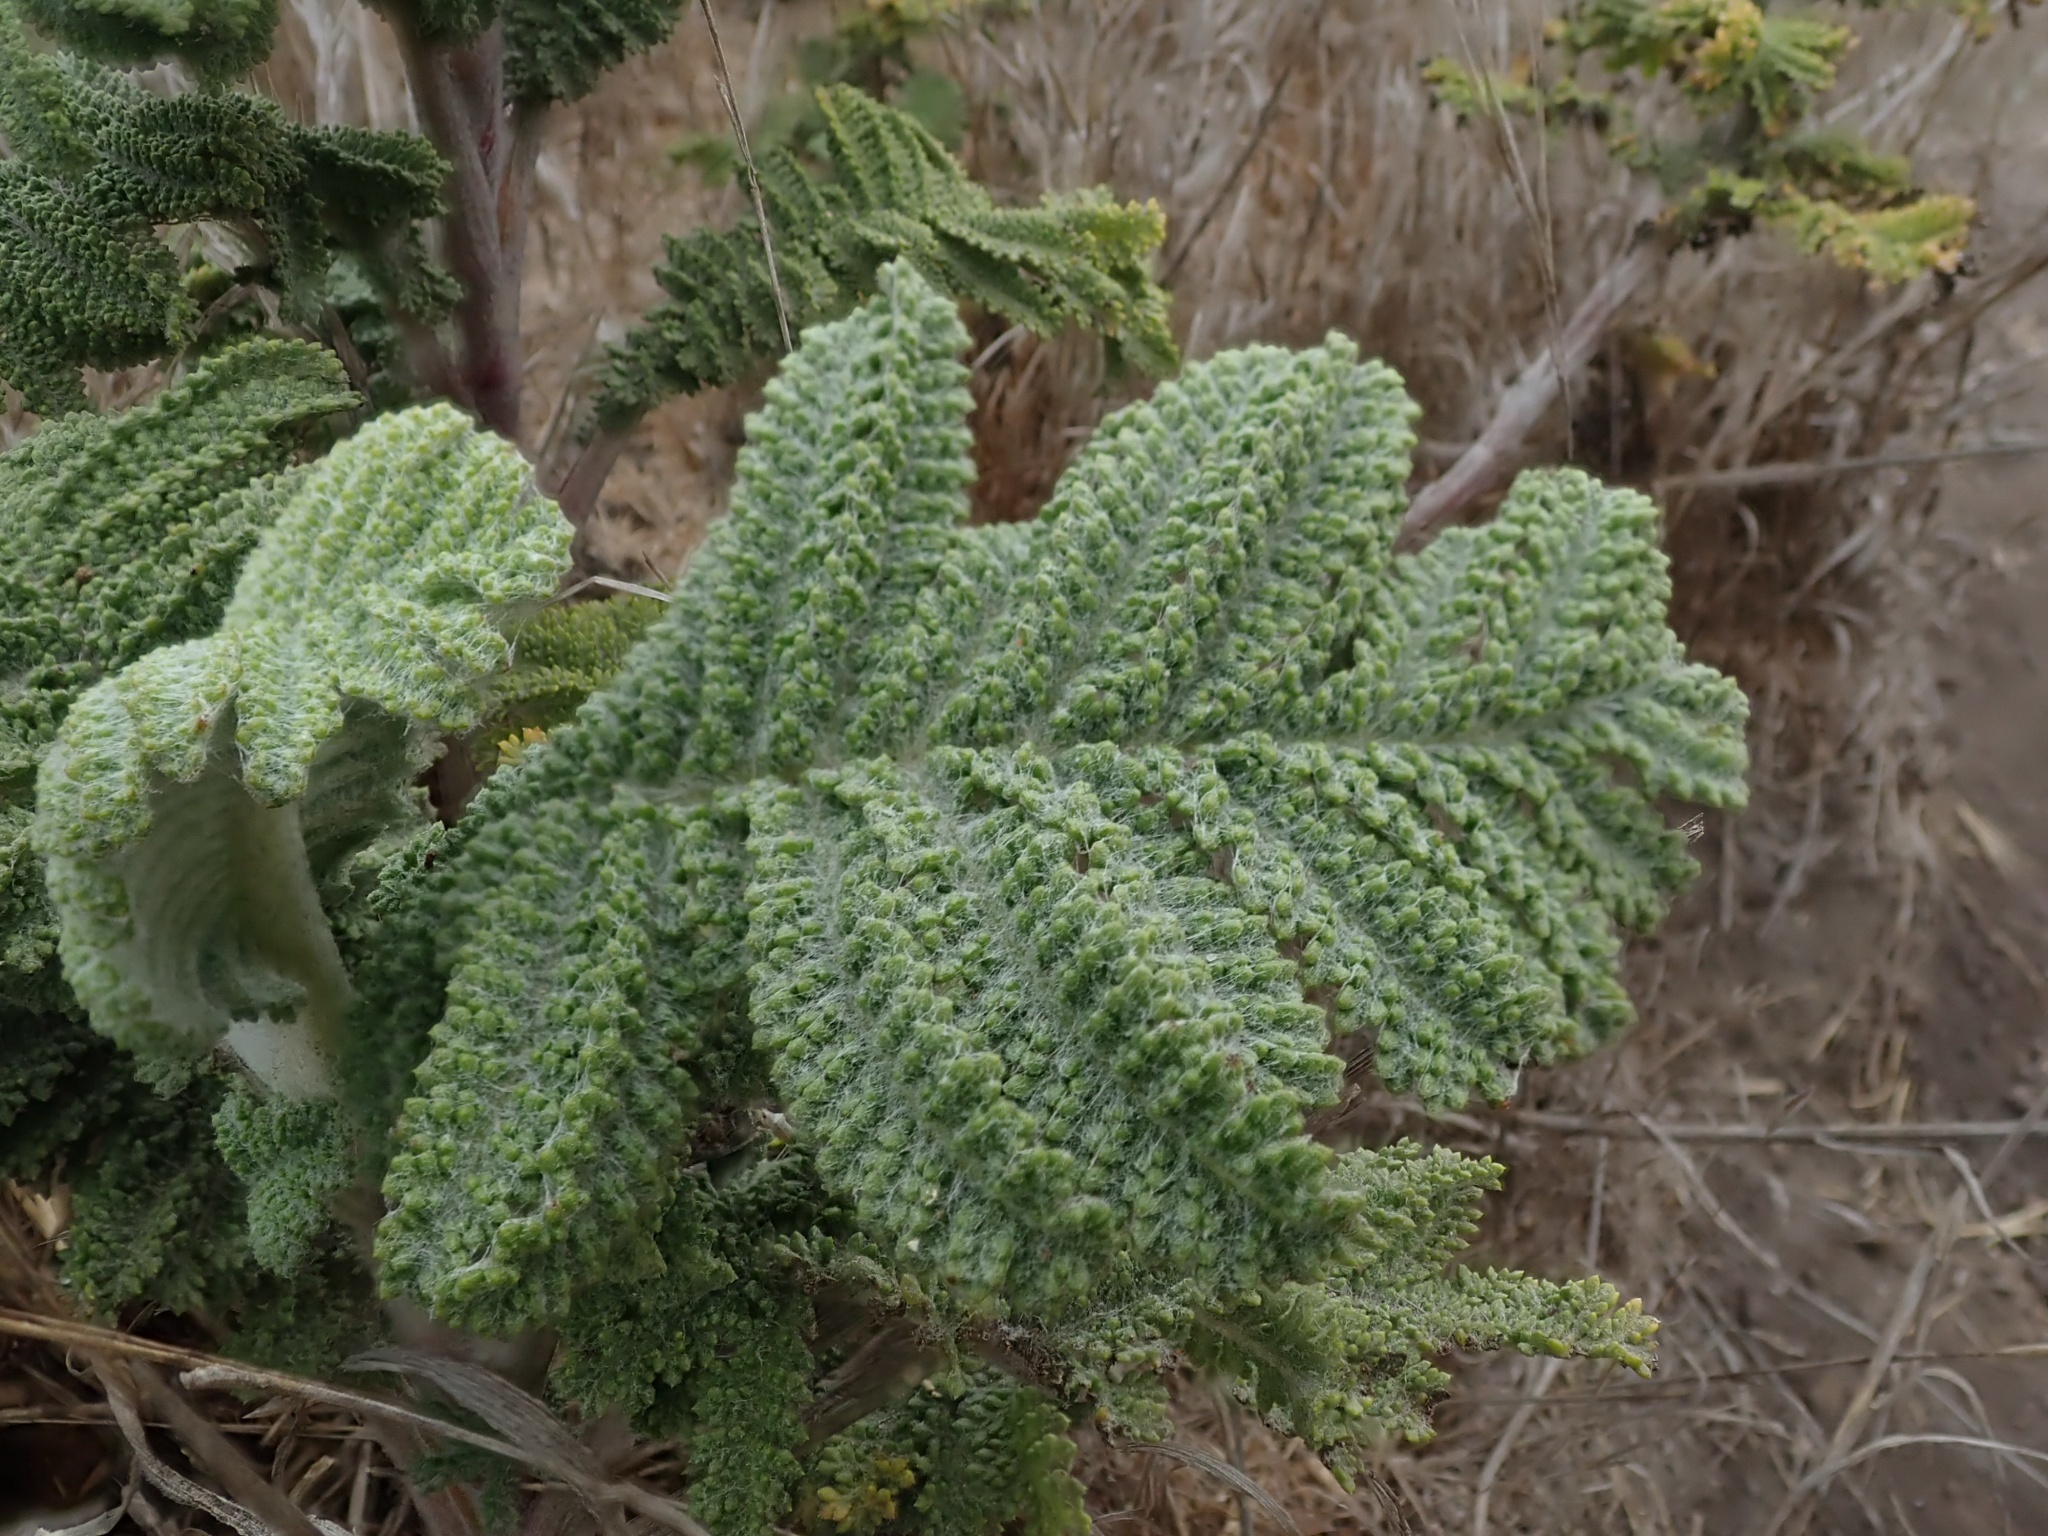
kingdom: Plantae
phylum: Tracheophyta
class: Magnoliopsida
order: Asterales
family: Asteraceae
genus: Tanacetum
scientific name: Tanacetum bipinnatum
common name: Dwarf tansy
